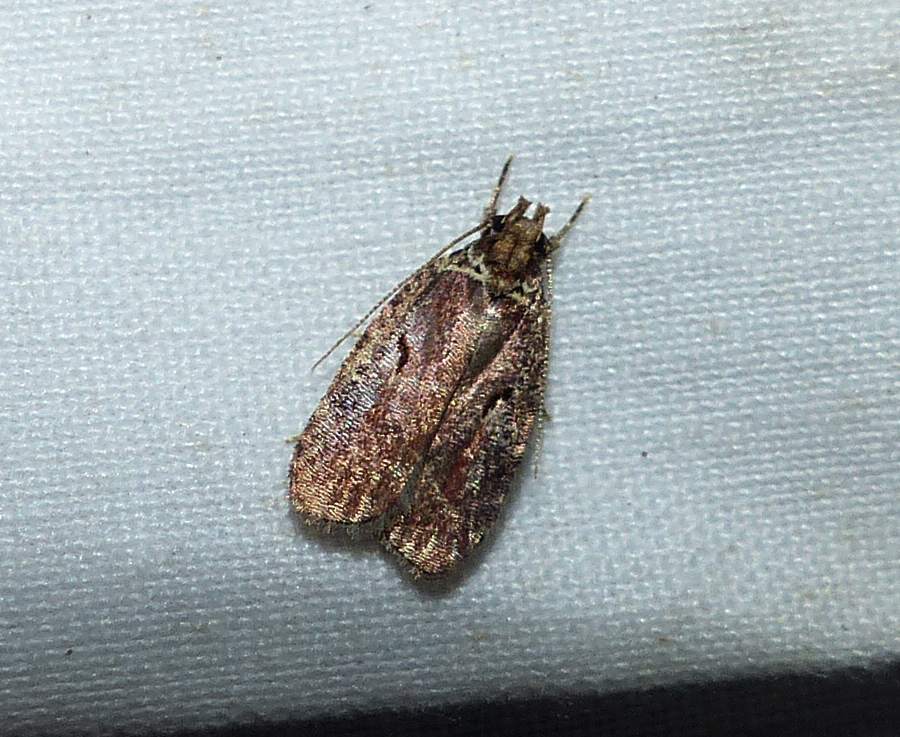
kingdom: Animalia
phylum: Arthropoda
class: Insecta
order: Lepidoptera
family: Depressariidae
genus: Agonopterix
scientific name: Agonopterix lythrella
